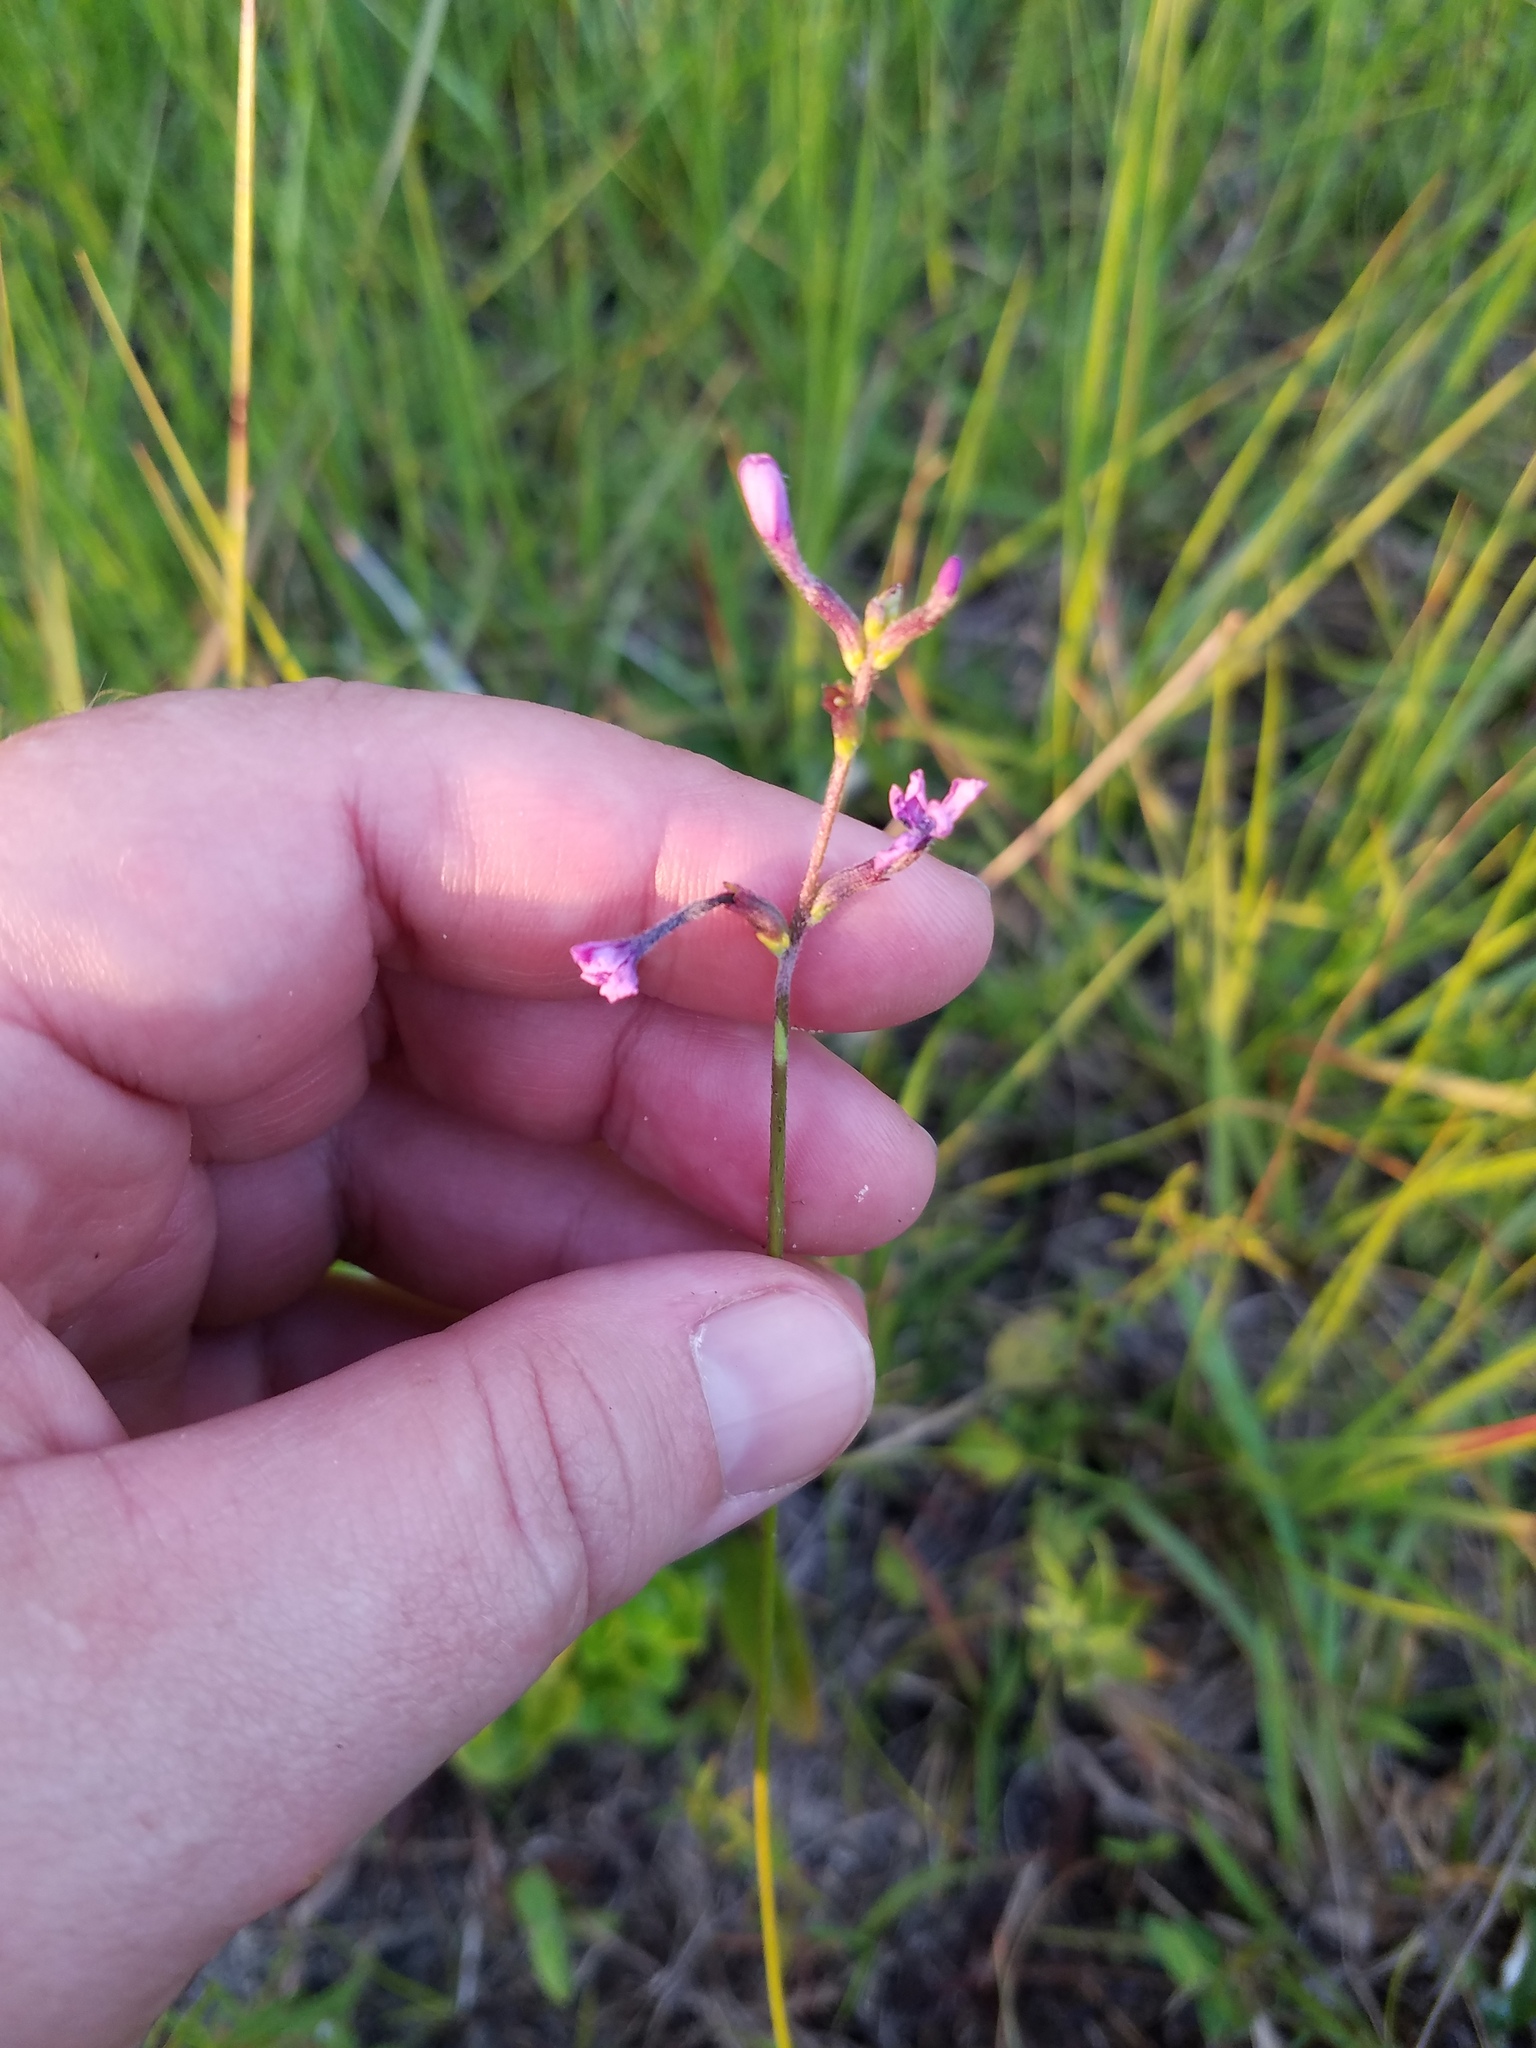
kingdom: Plantae
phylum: Tracheophyta
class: Magnoliopsida
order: Lamiales
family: Orobanchaceae
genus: Buchnera
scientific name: Buchnera floridana
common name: Florida bluehearts
